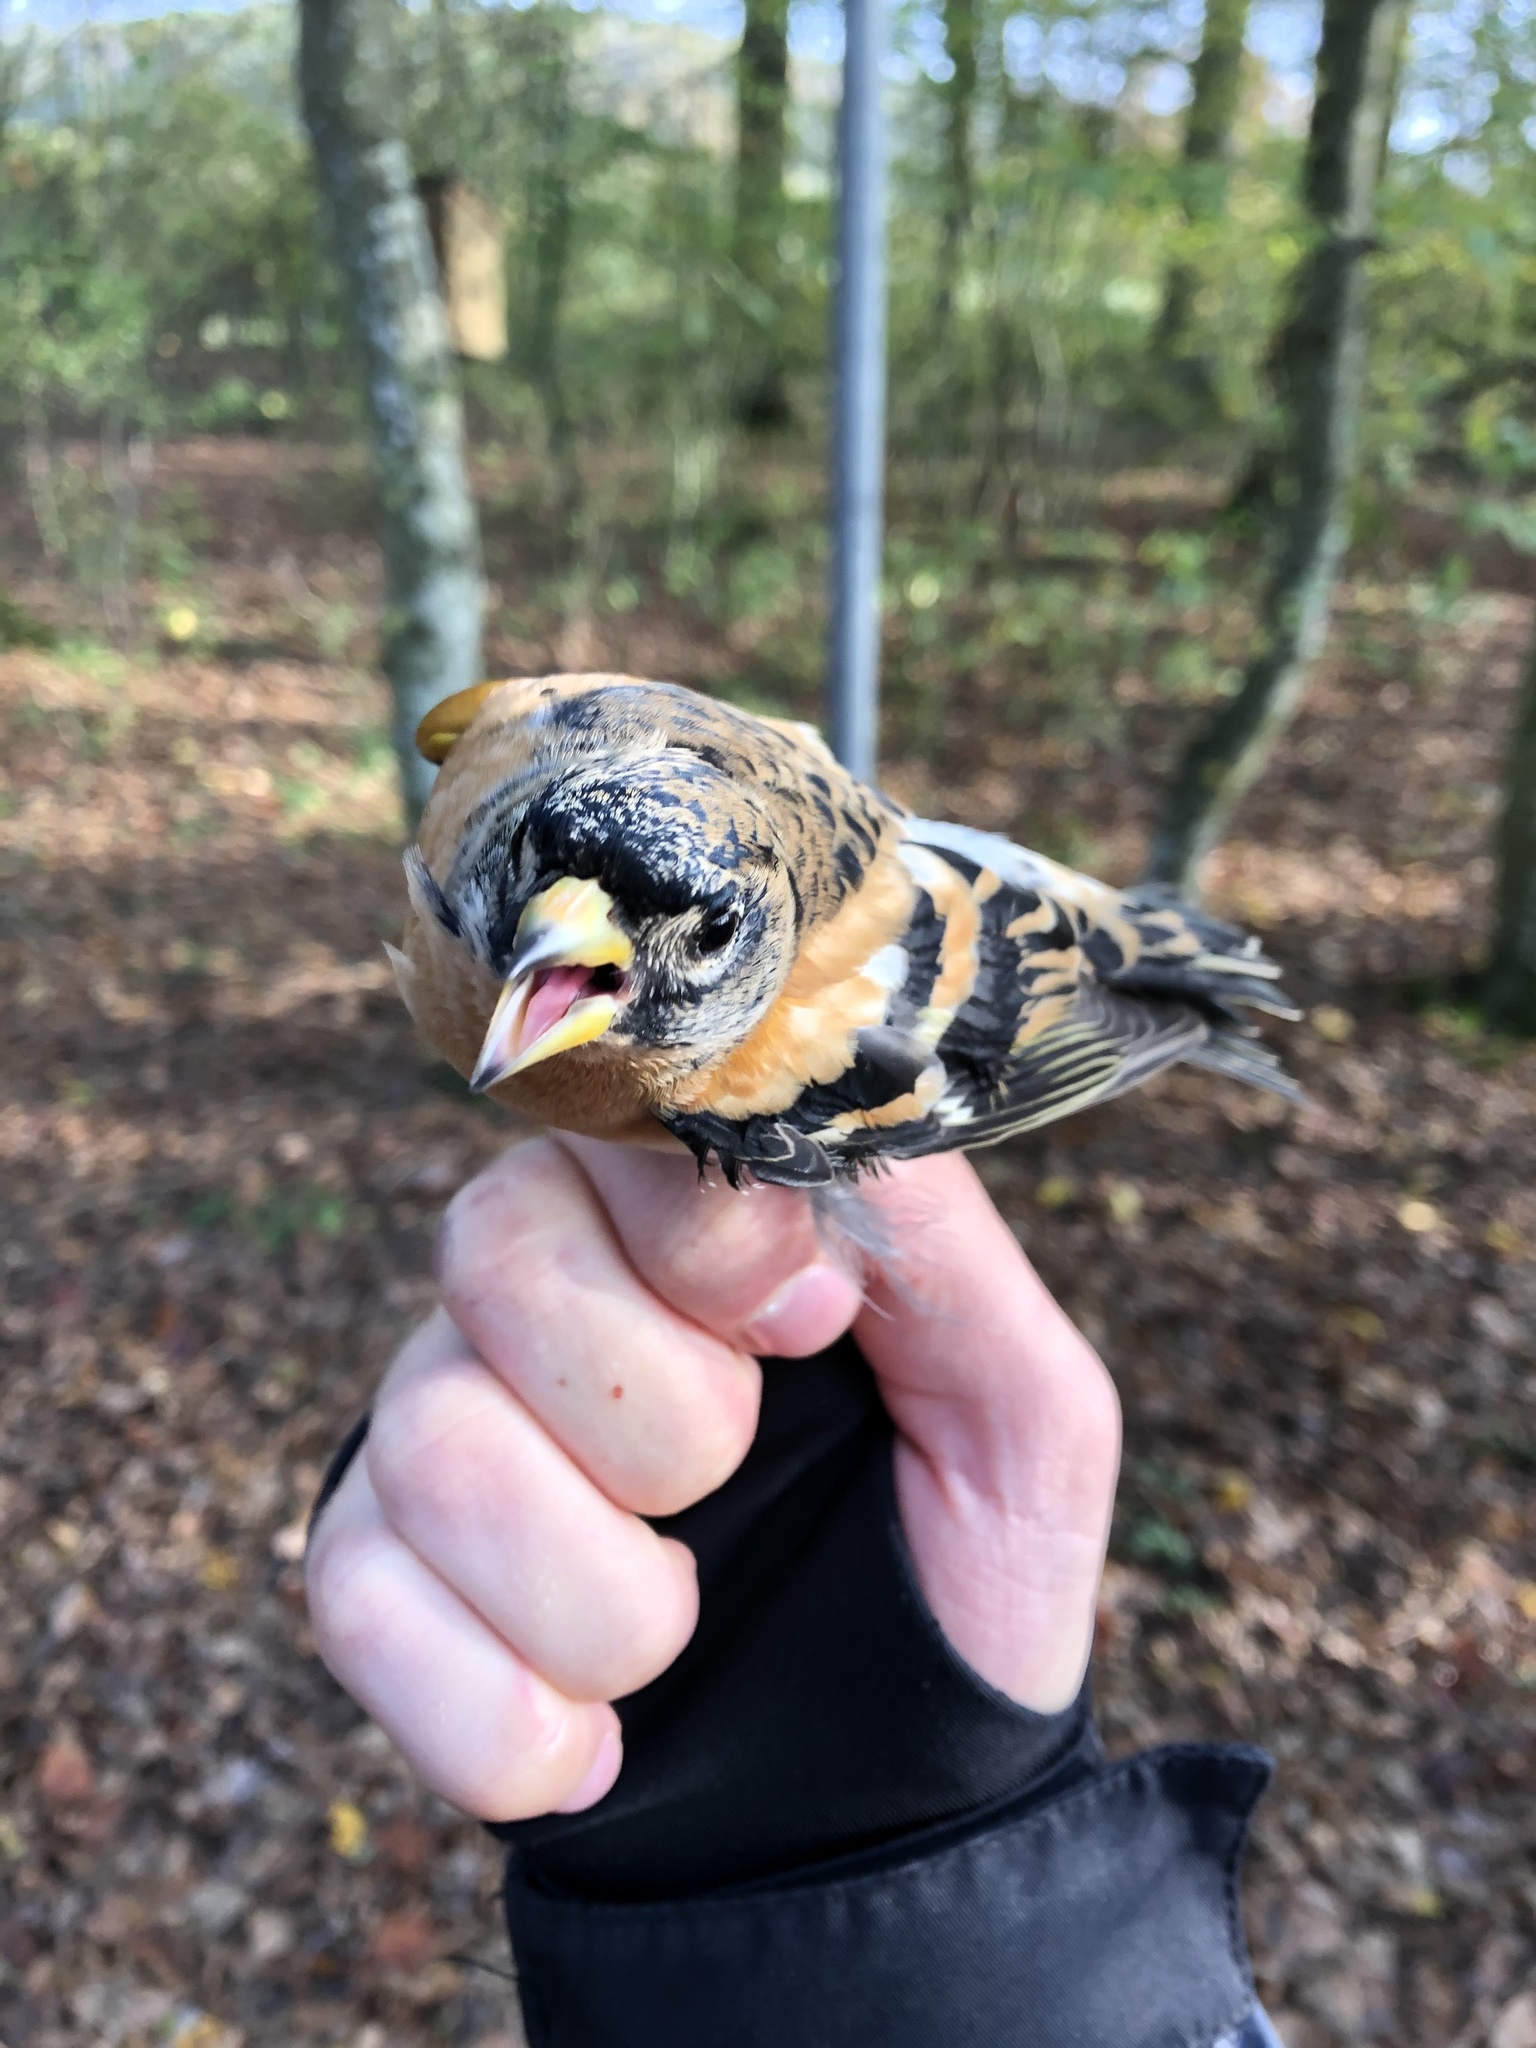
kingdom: Animalia
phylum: Chordata
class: Aves
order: Passeriformes
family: Fringillidae
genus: Fringilla
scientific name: Fringilla montifringilla
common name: Brambling
